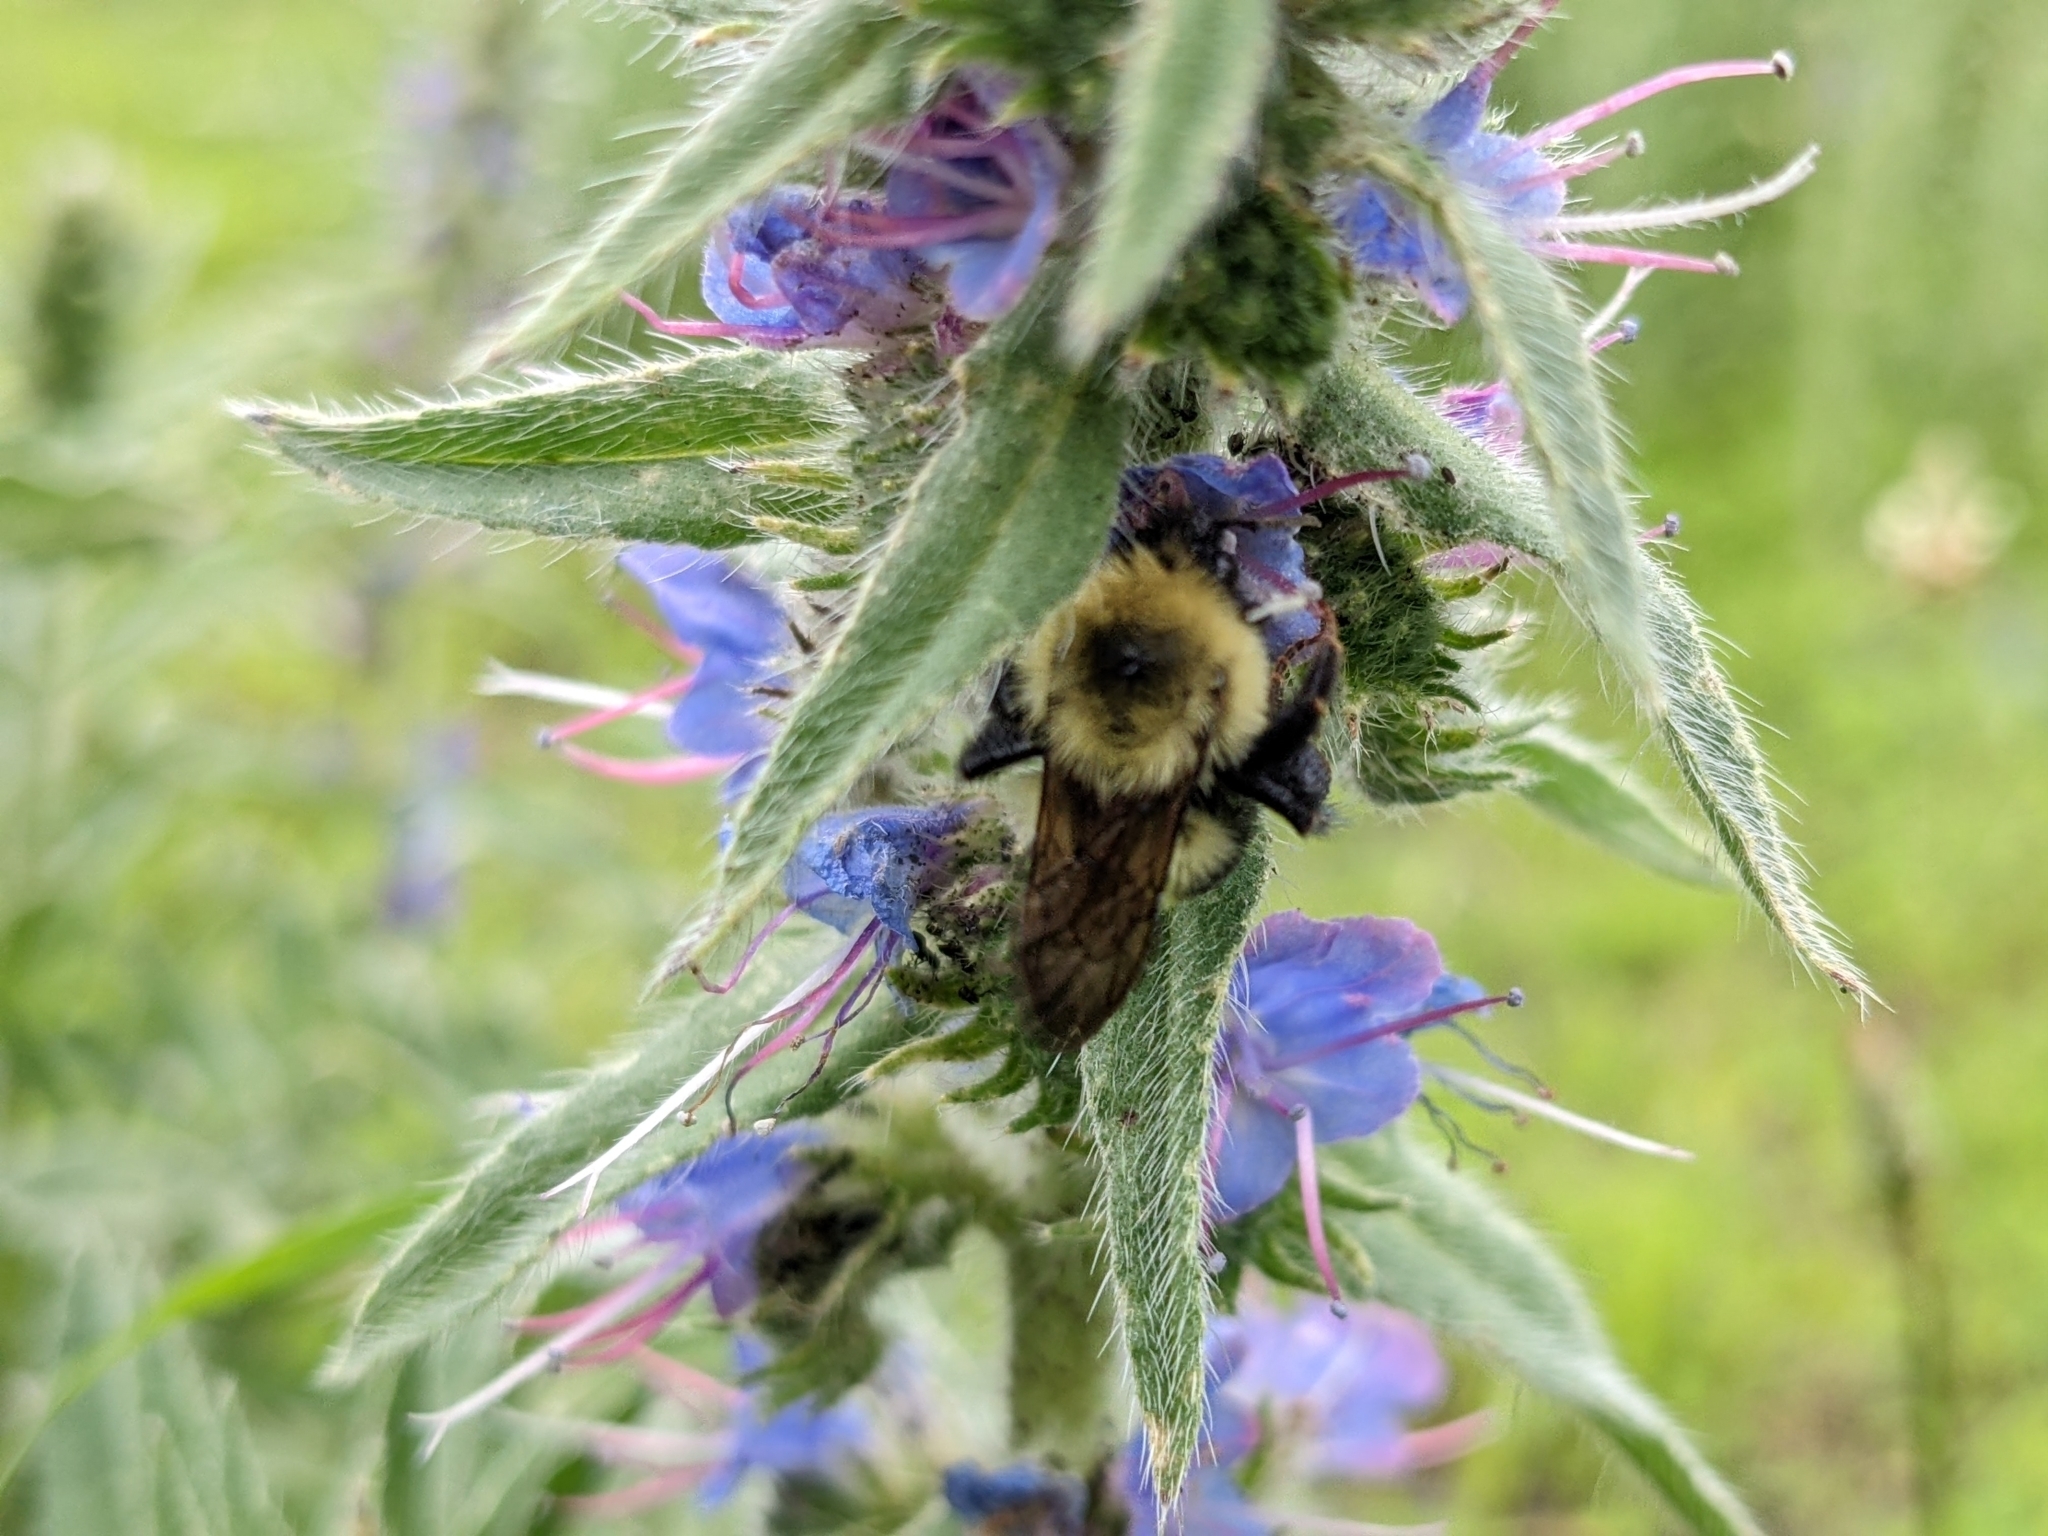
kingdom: Animalia
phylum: Arthropoda
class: Insecta
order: Hymenoptera
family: Apidae
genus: Bombus
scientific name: Bombus bimaculatus
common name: Two-spotted bumble bee
